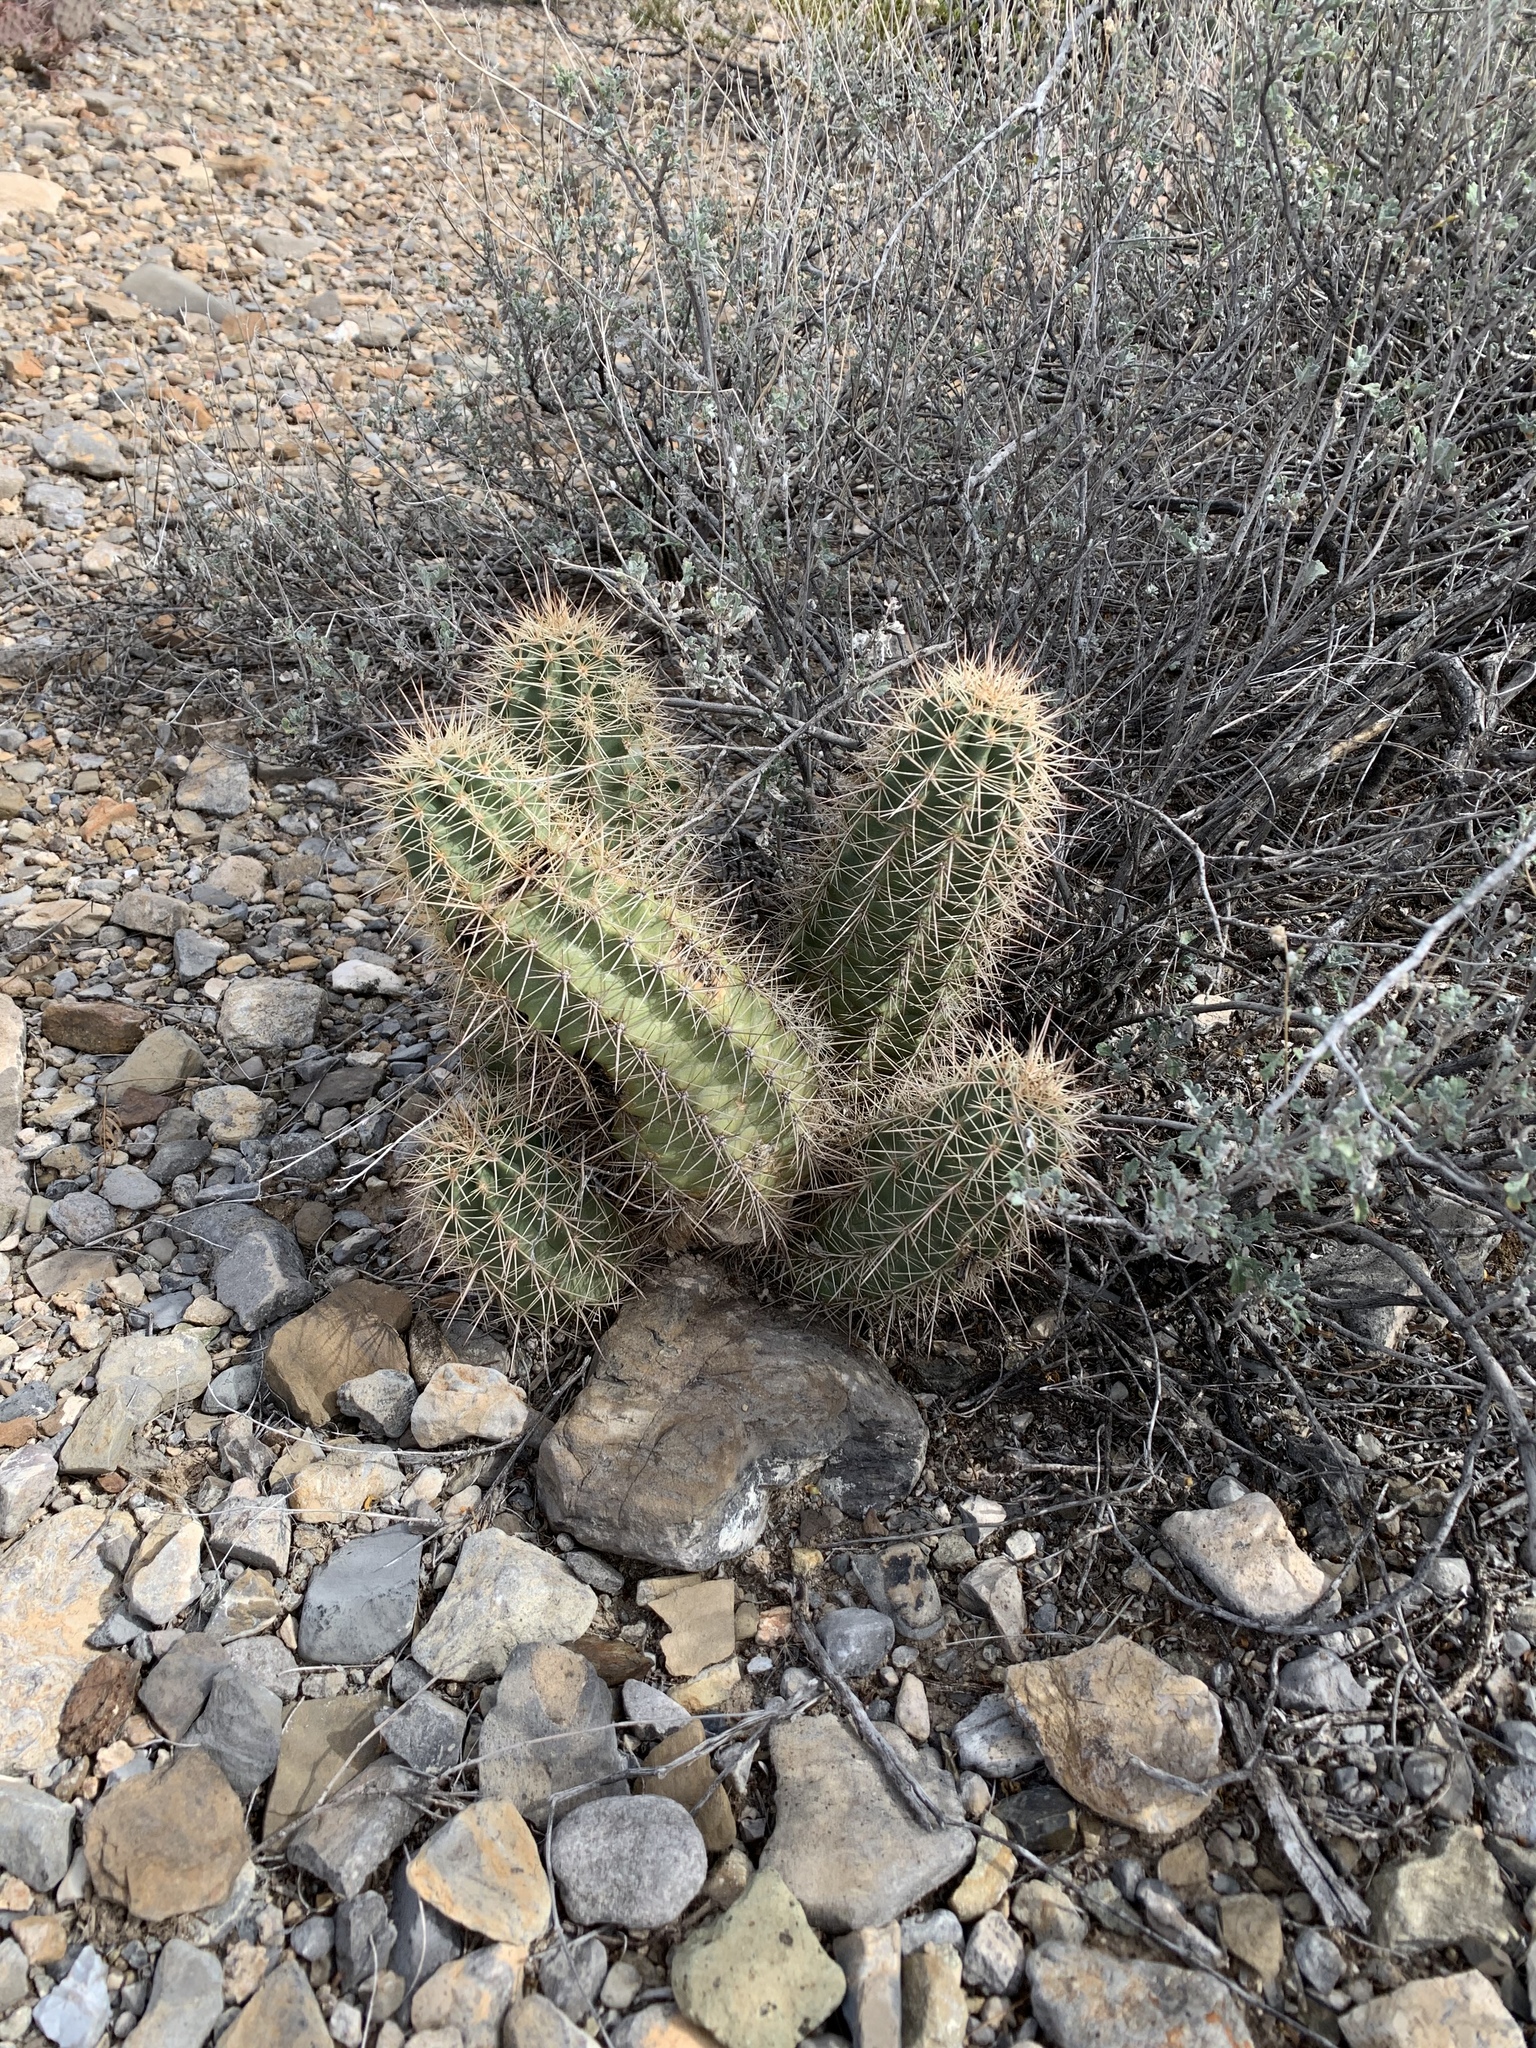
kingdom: Plantae
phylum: Tracheophyta
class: Magnoliopsida
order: Caryophyllales
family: Cactaceae
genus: Echinocereus
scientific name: Echinocereus coccineus
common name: Scarlet hedgehog cactus
